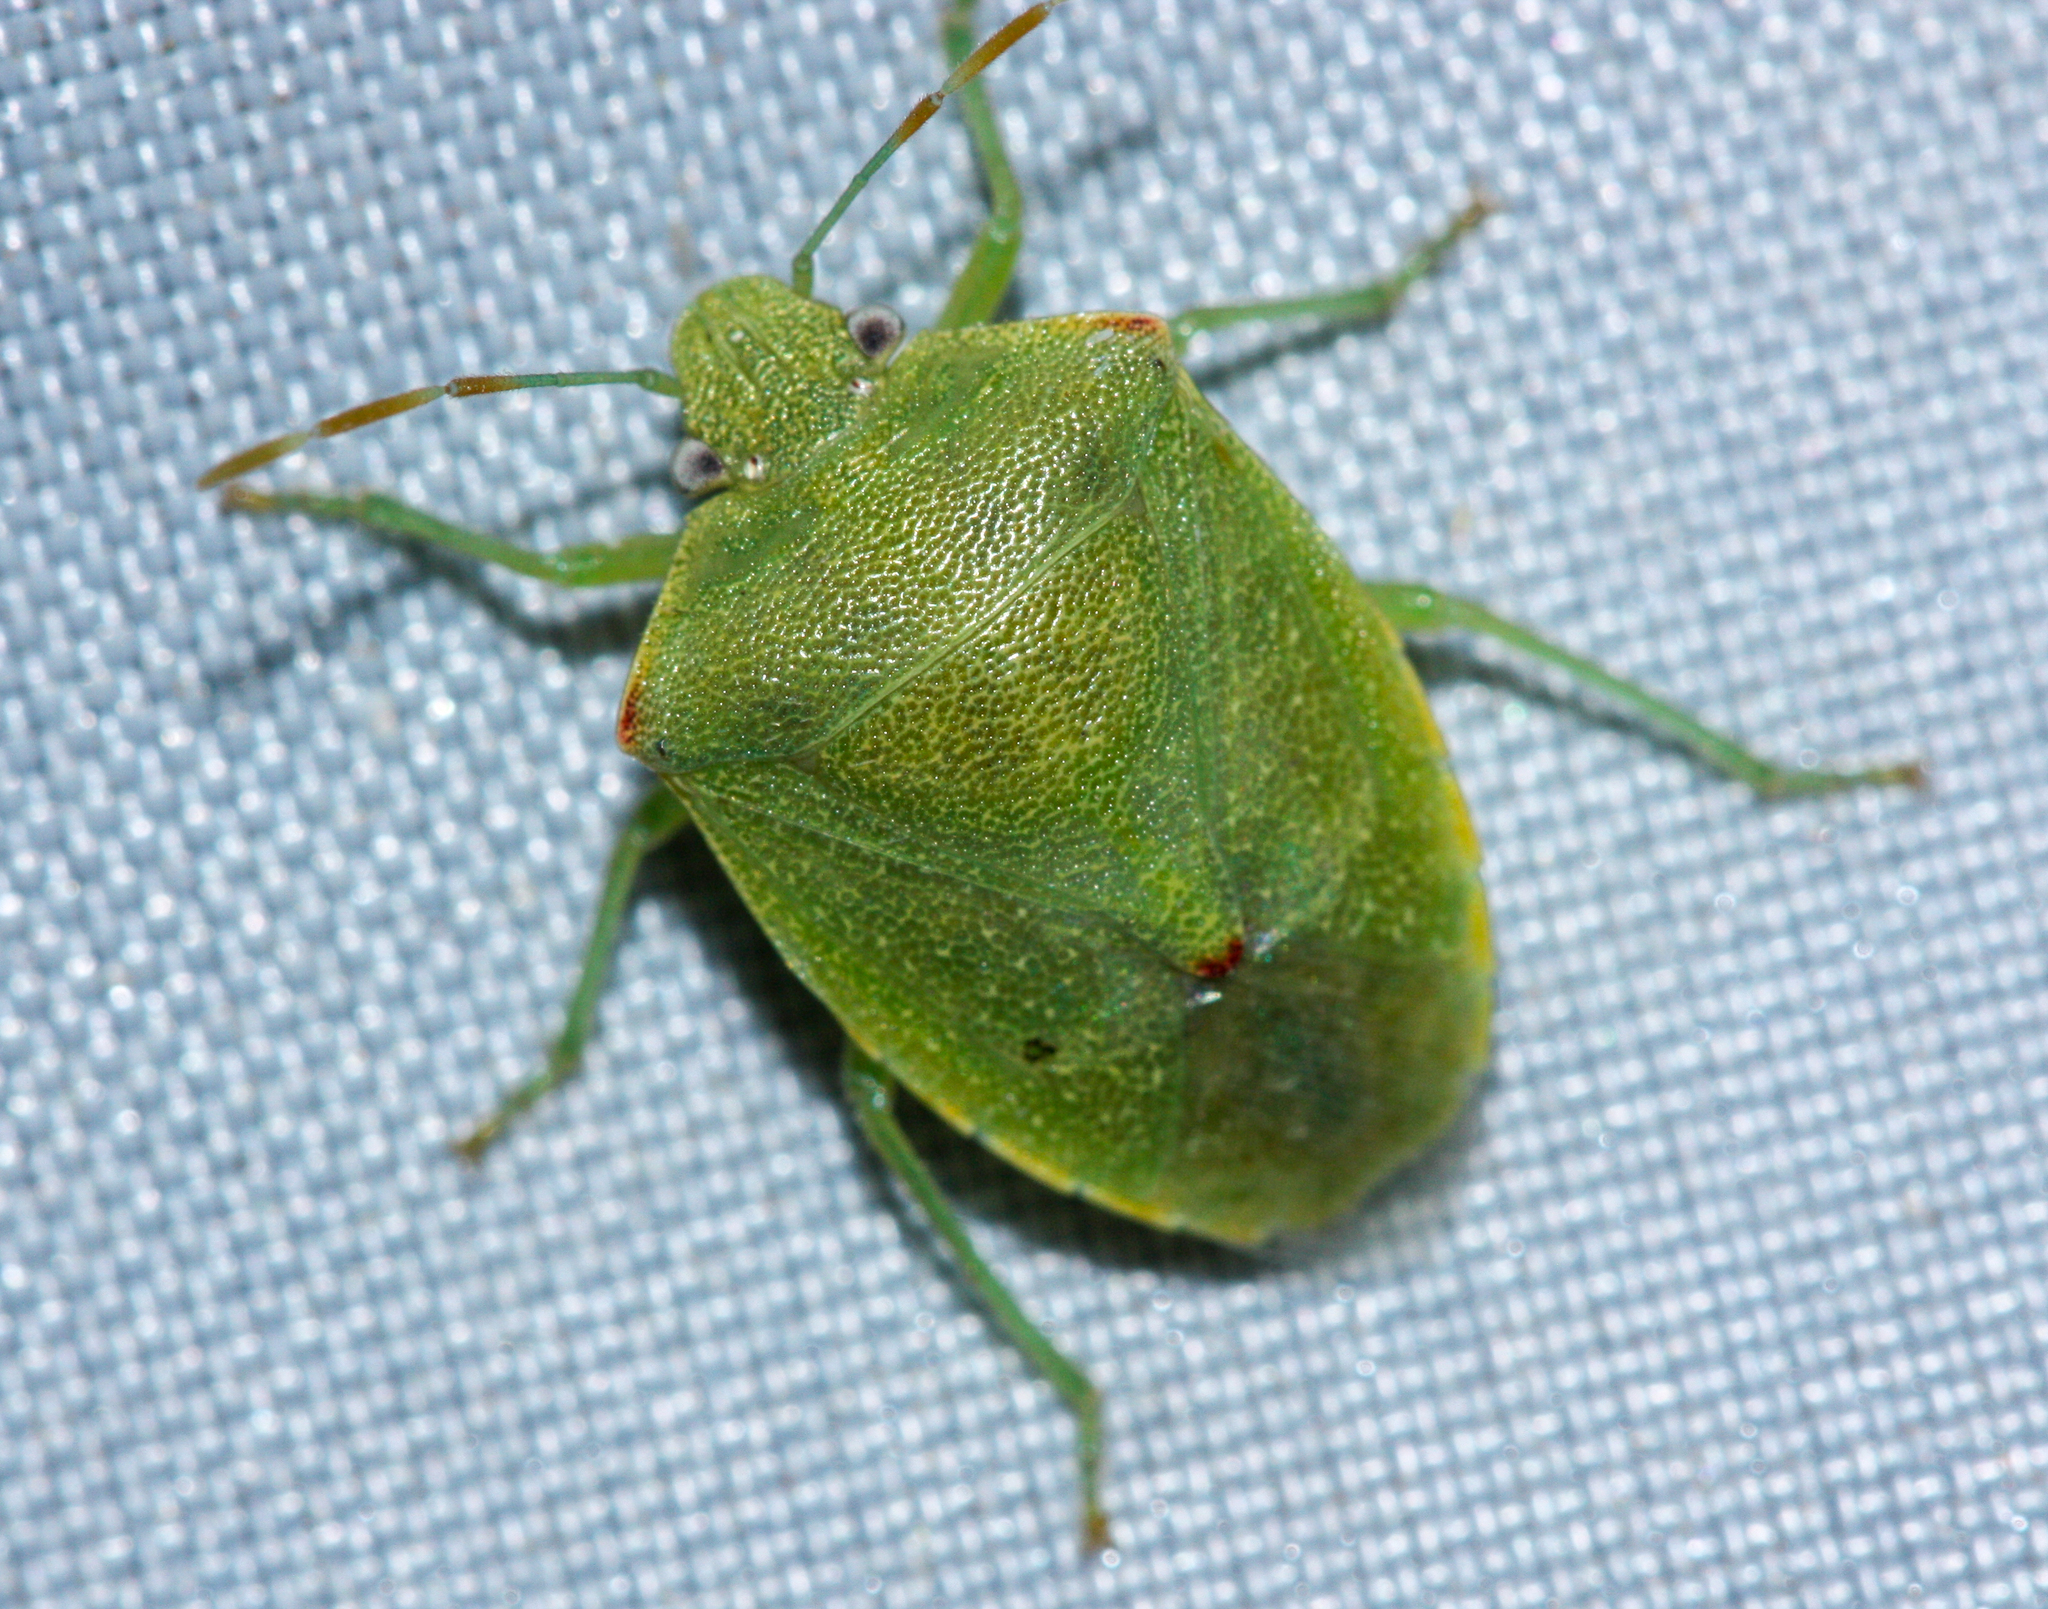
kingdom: Animalia
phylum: Arthropoda
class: Insecta
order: Hemiptera
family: Pentatomidae
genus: Thyanta
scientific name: Thyanta accerra
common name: Stink bug
